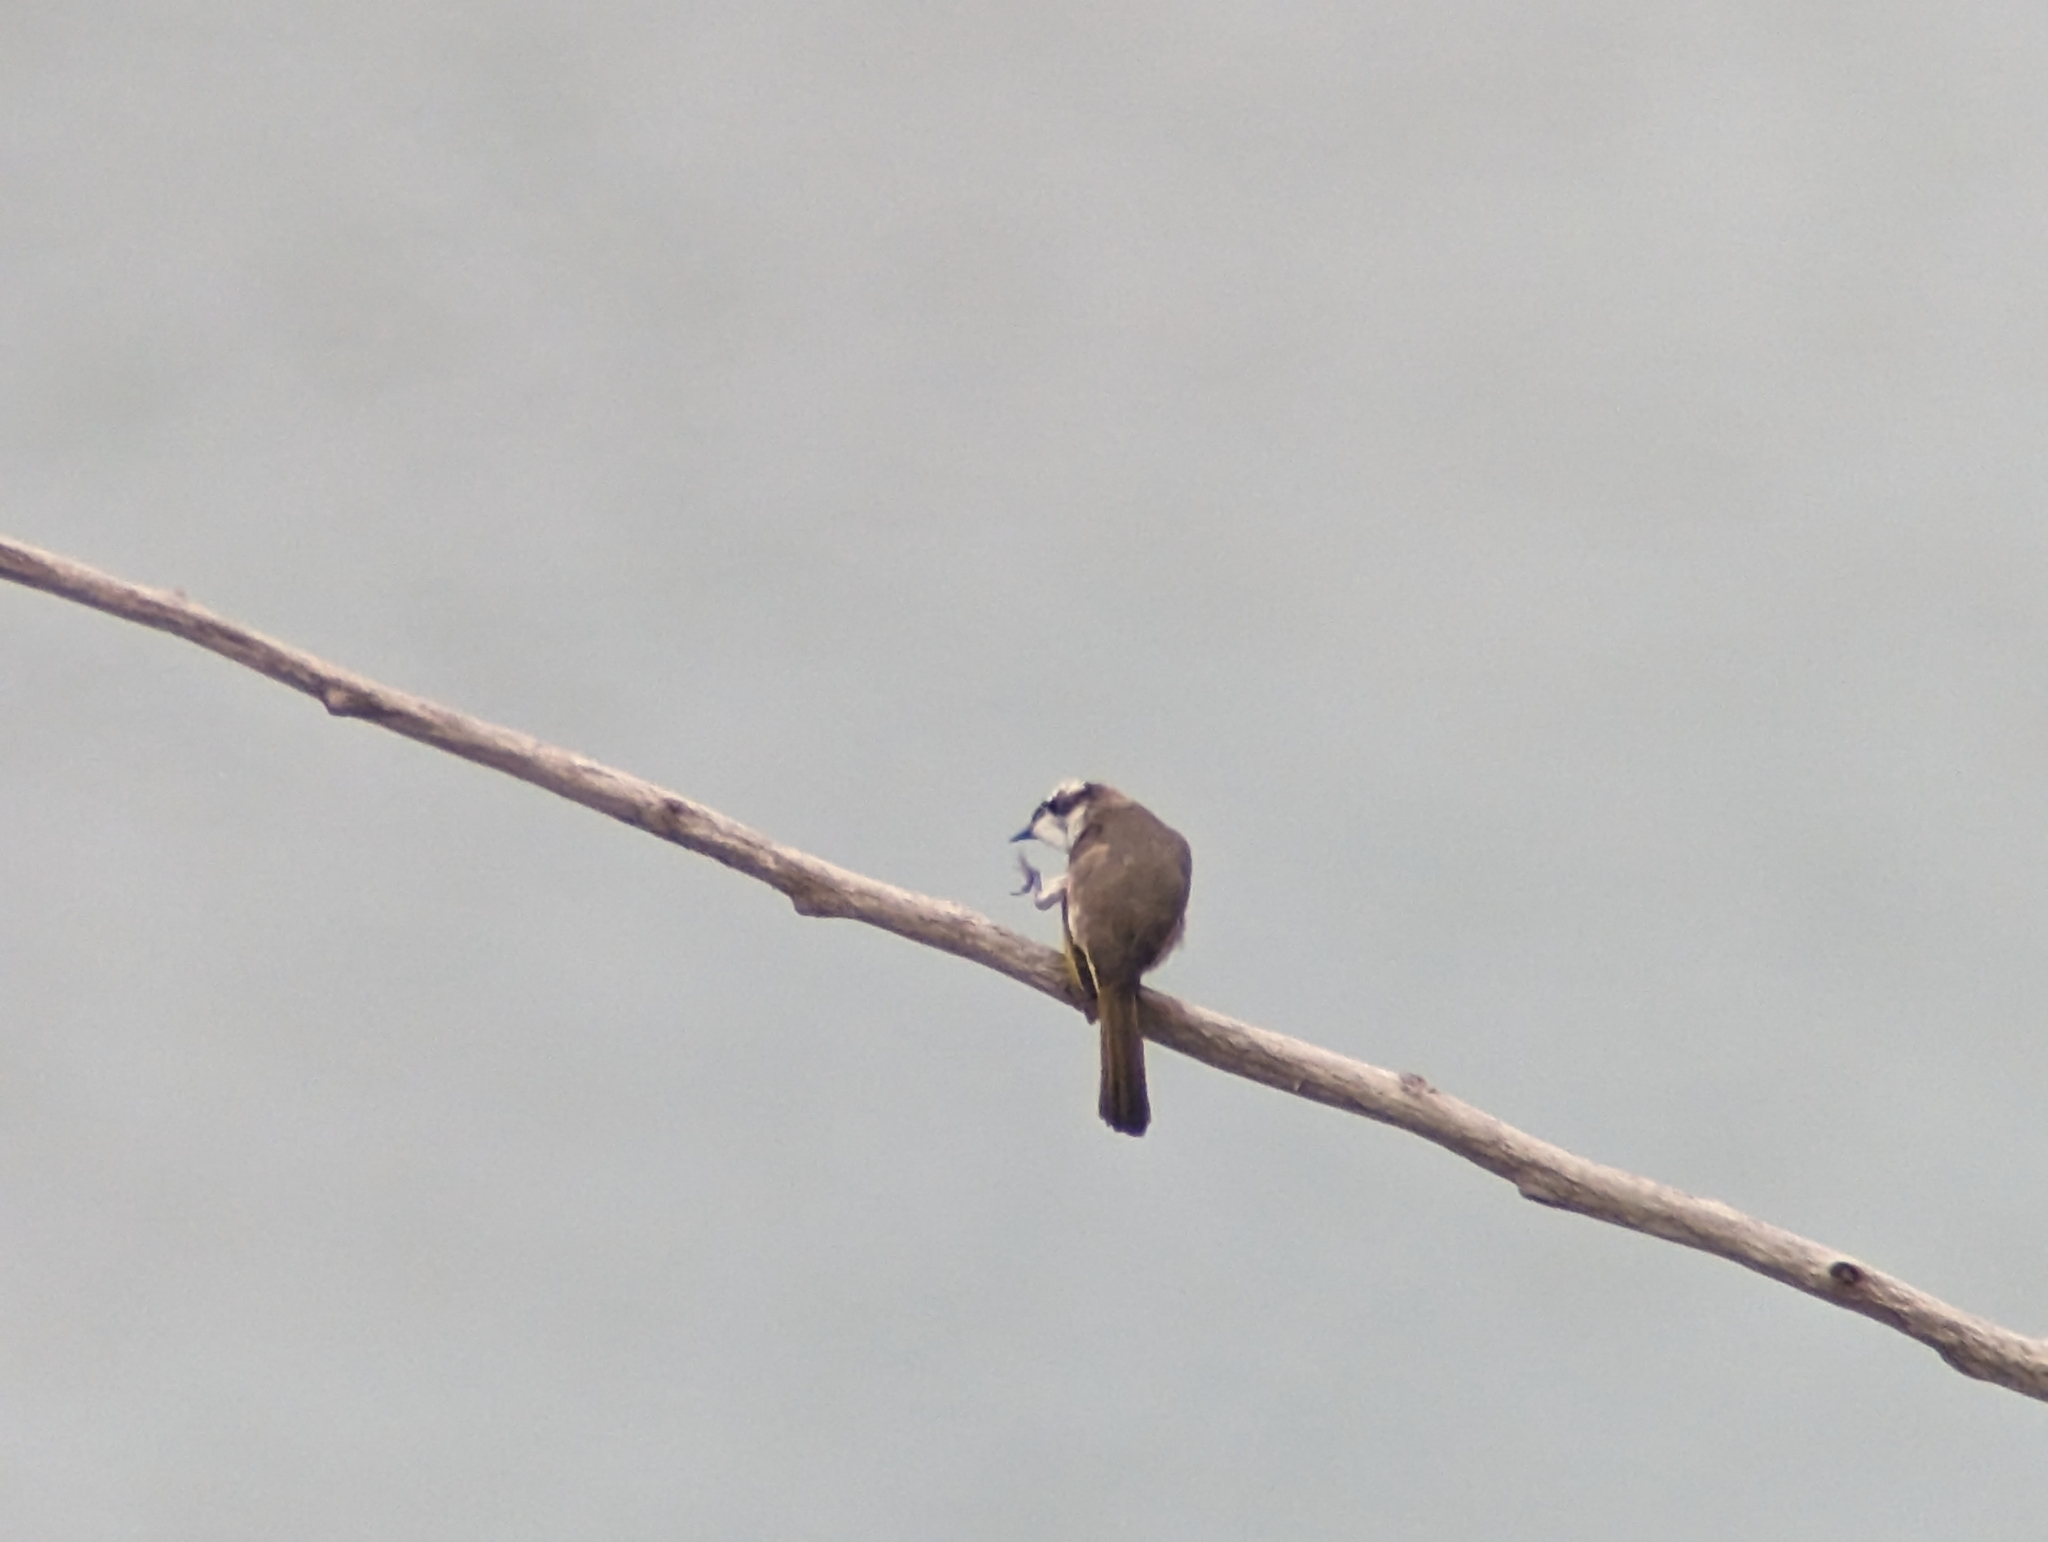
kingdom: Animalia
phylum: Chordata
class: Aves
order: Passeriformes
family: Pycnonotidae
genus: Pycnonotus
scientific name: Pycnonotus sinensis
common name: Light-vented bulbul
